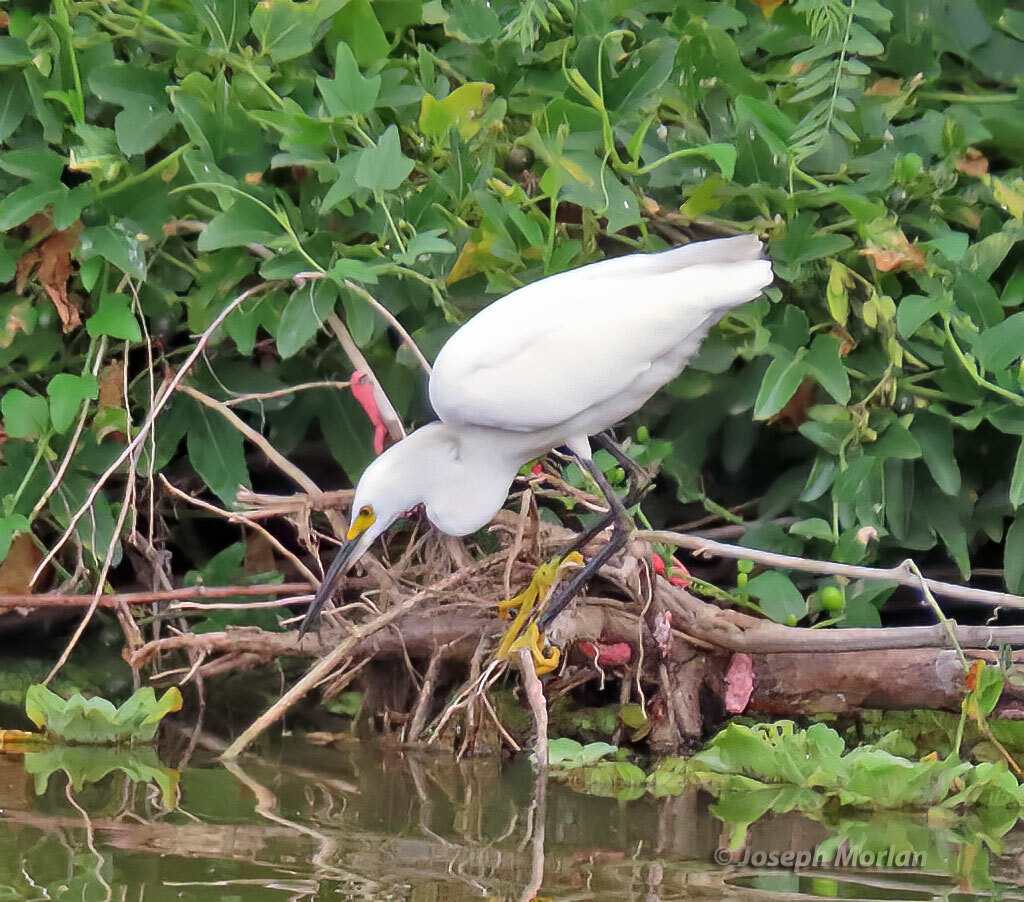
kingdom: Animalia
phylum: Chordata
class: Aves
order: Pelecaniformes
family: Ardeidae
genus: Egretta
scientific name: Egretta thula
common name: Snowy egret
